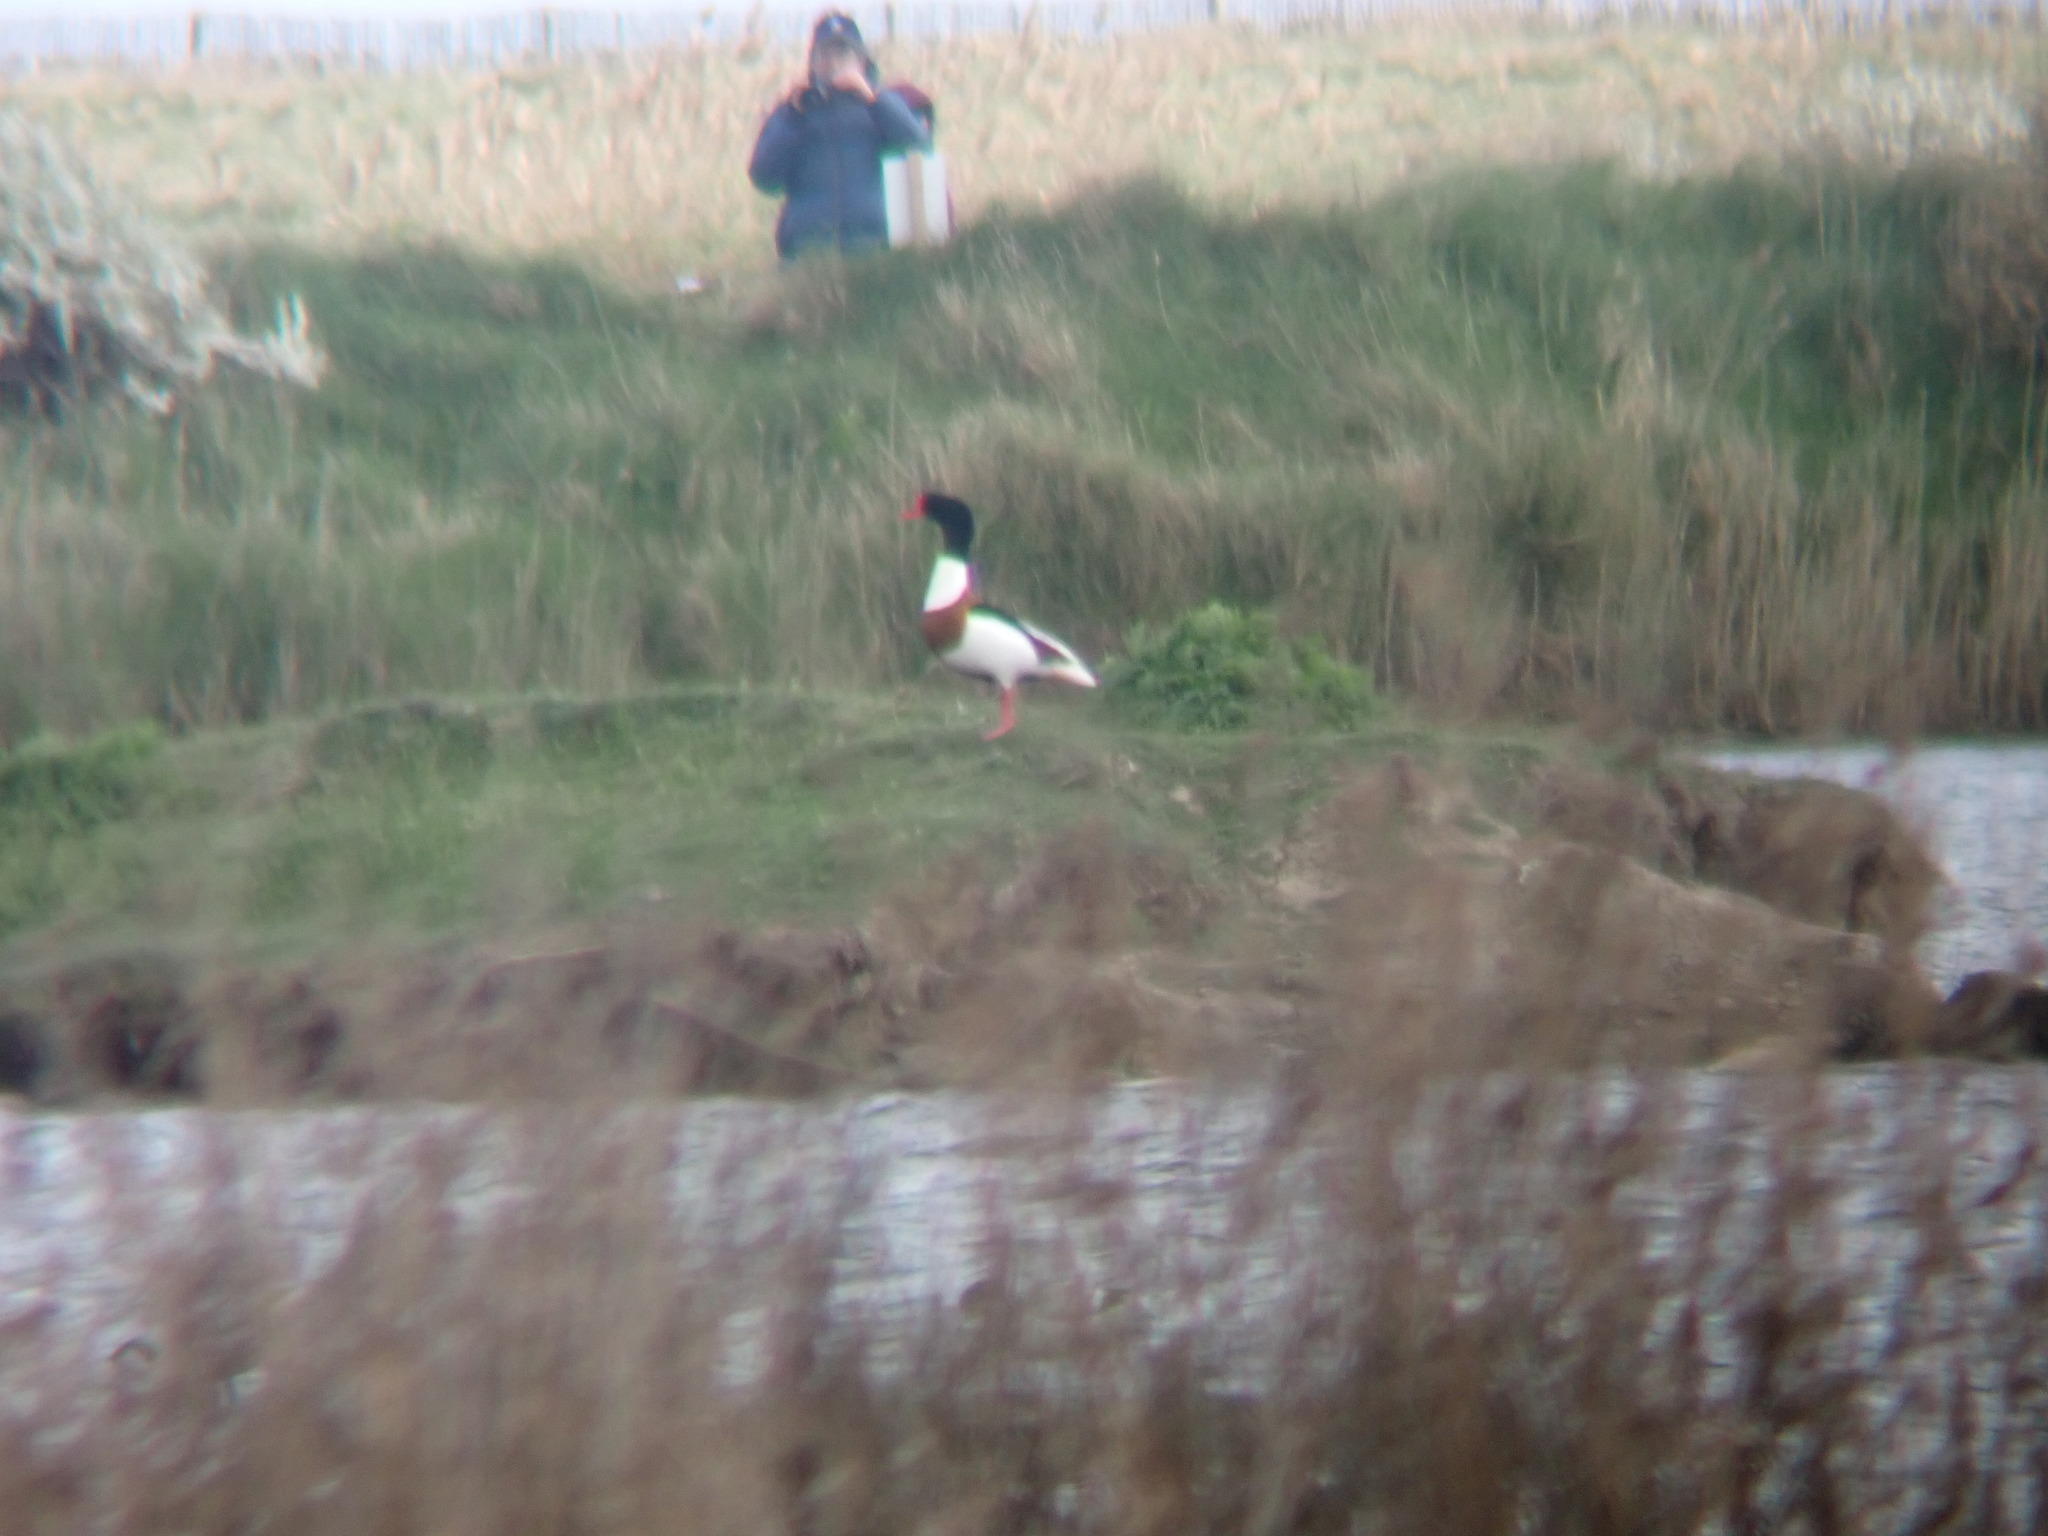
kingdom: Animalia
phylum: Chordata
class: Aves
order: Anseriformes
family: Anatidae
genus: Tadorna
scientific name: Tadorna tadorna
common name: Common shelduck
